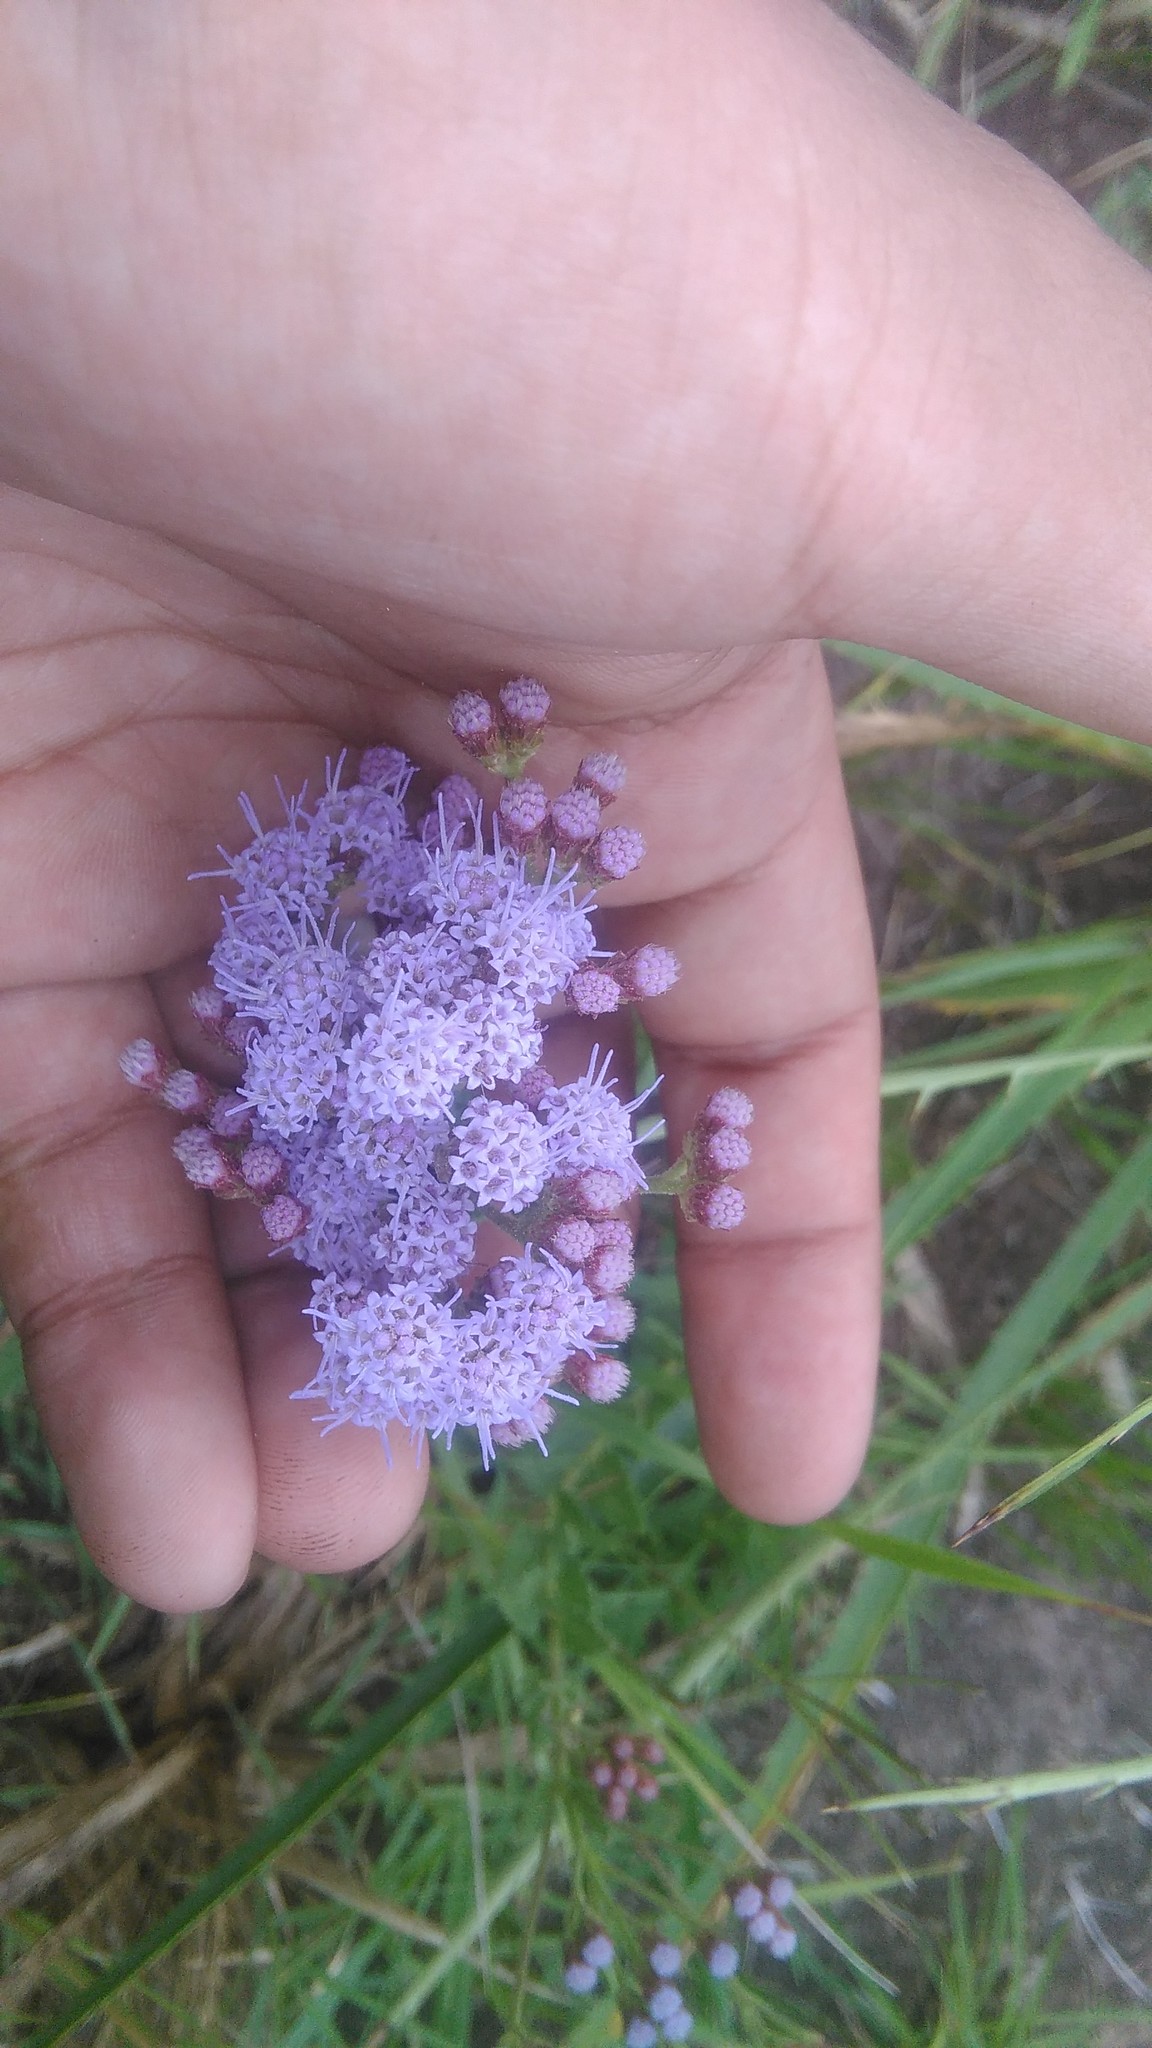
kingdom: Plantae
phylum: Tracheophyta
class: Magnoliopsida
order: Asterales
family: Asteraceae
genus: Chromolaena
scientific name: Chromolaena hirsuta
